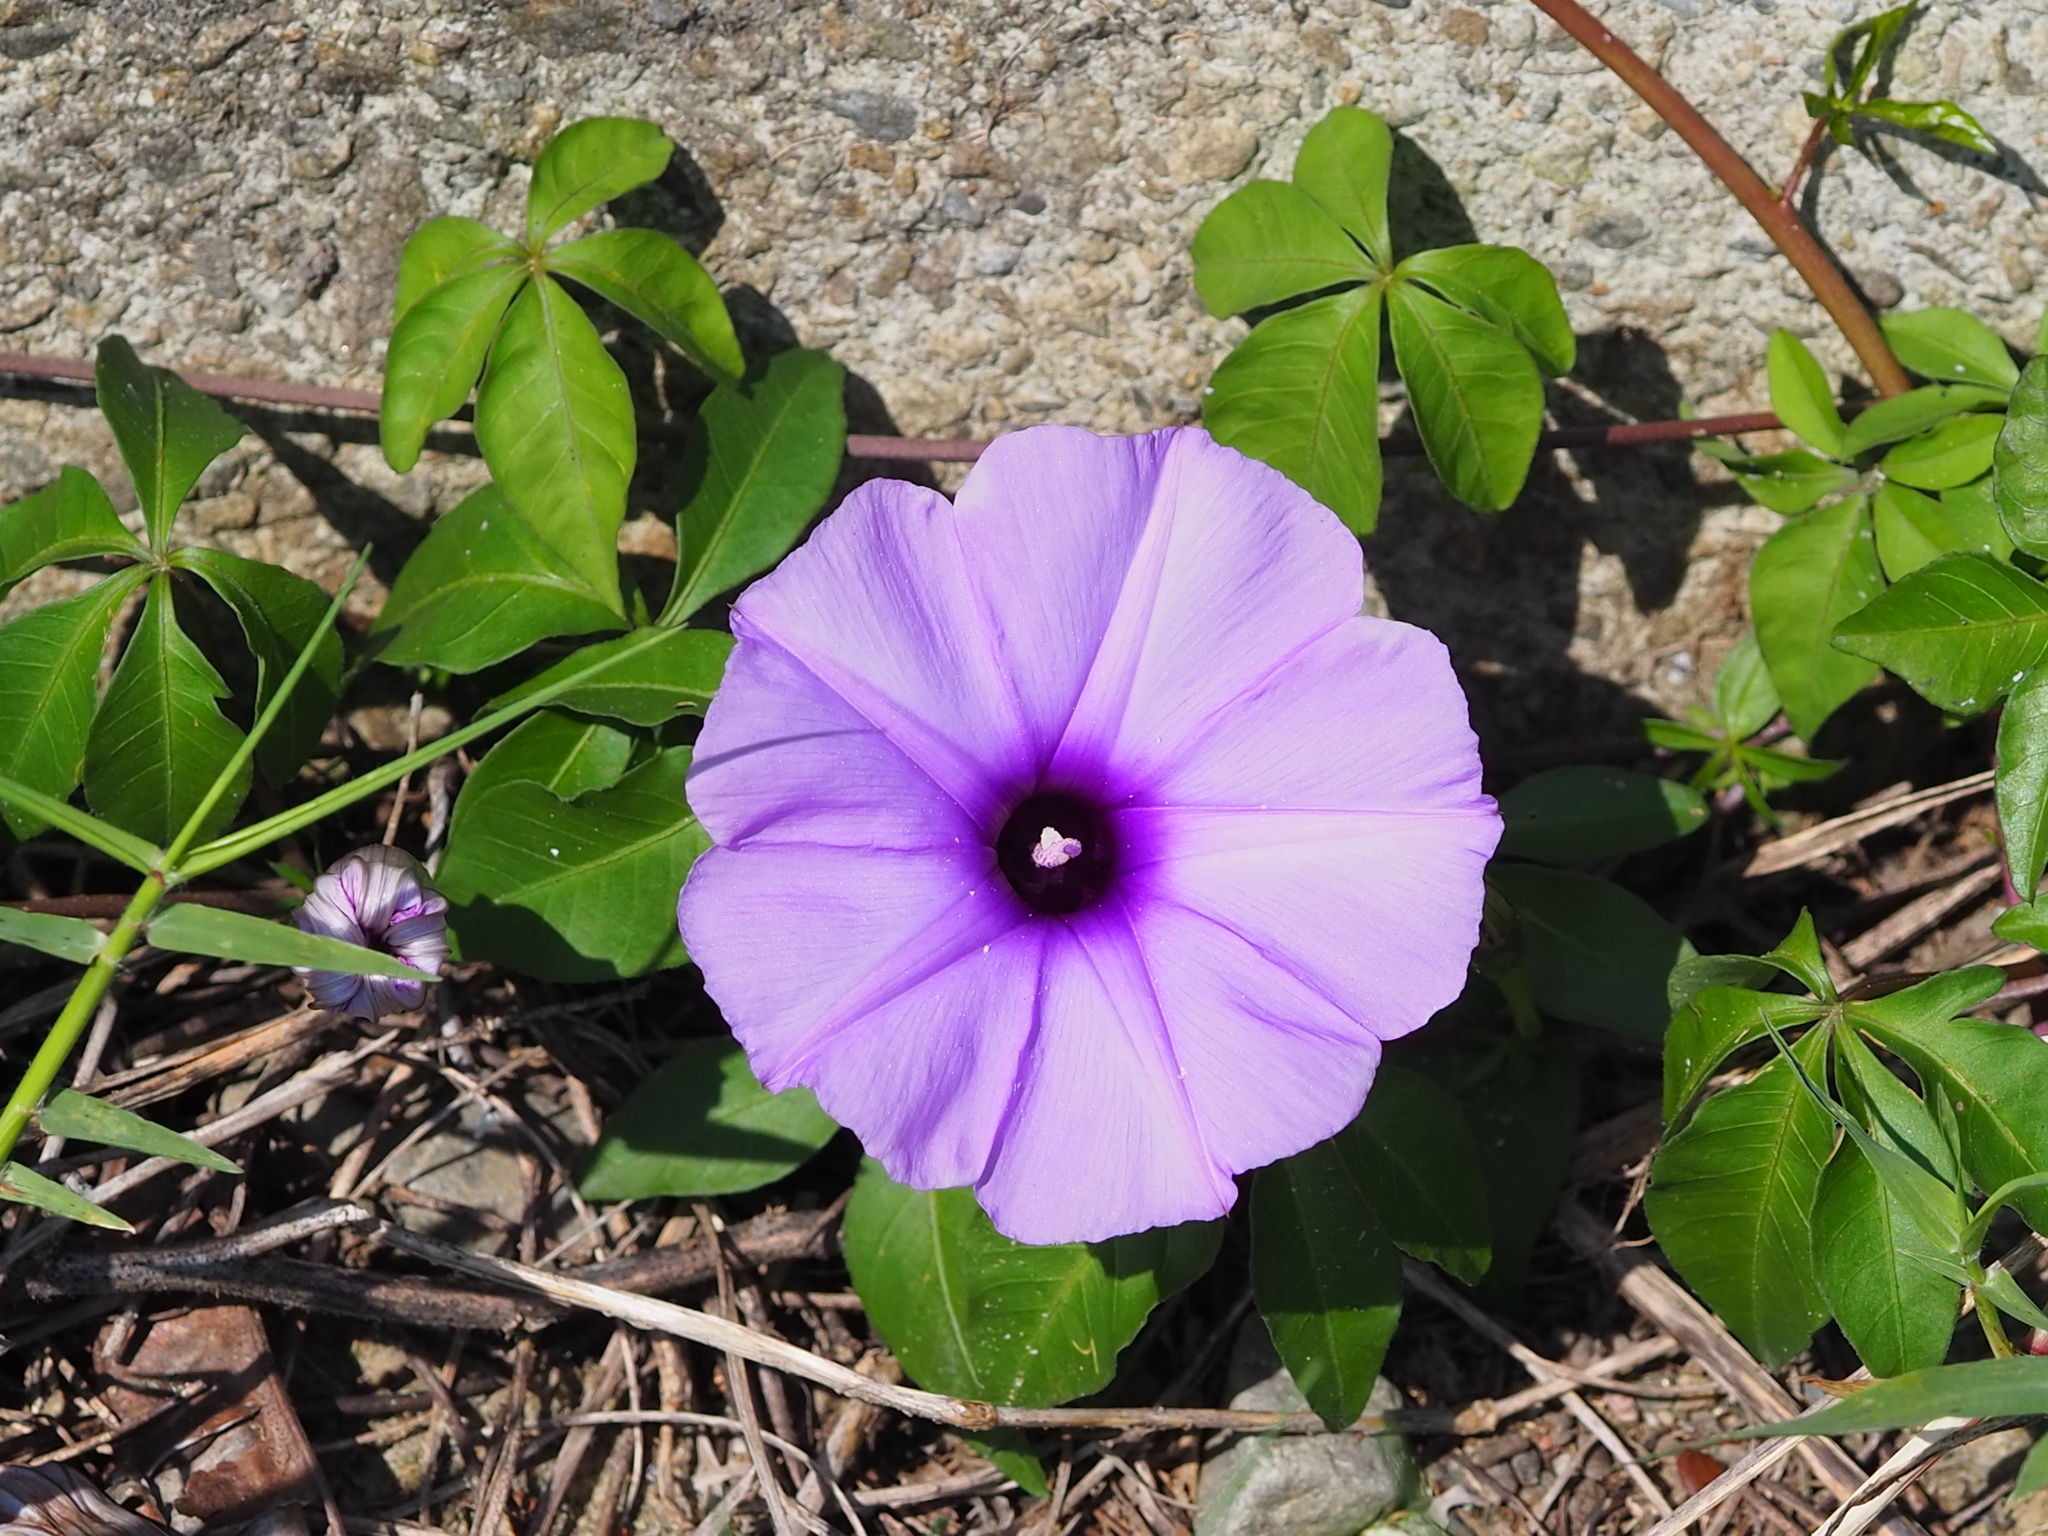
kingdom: Plantae
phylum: Tracheophyta
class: Magnoliopsida
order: Solanales
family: Convolvulaceae
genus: Ipomoea
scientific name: Ipomoea cairica
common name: Mile a minute vine
